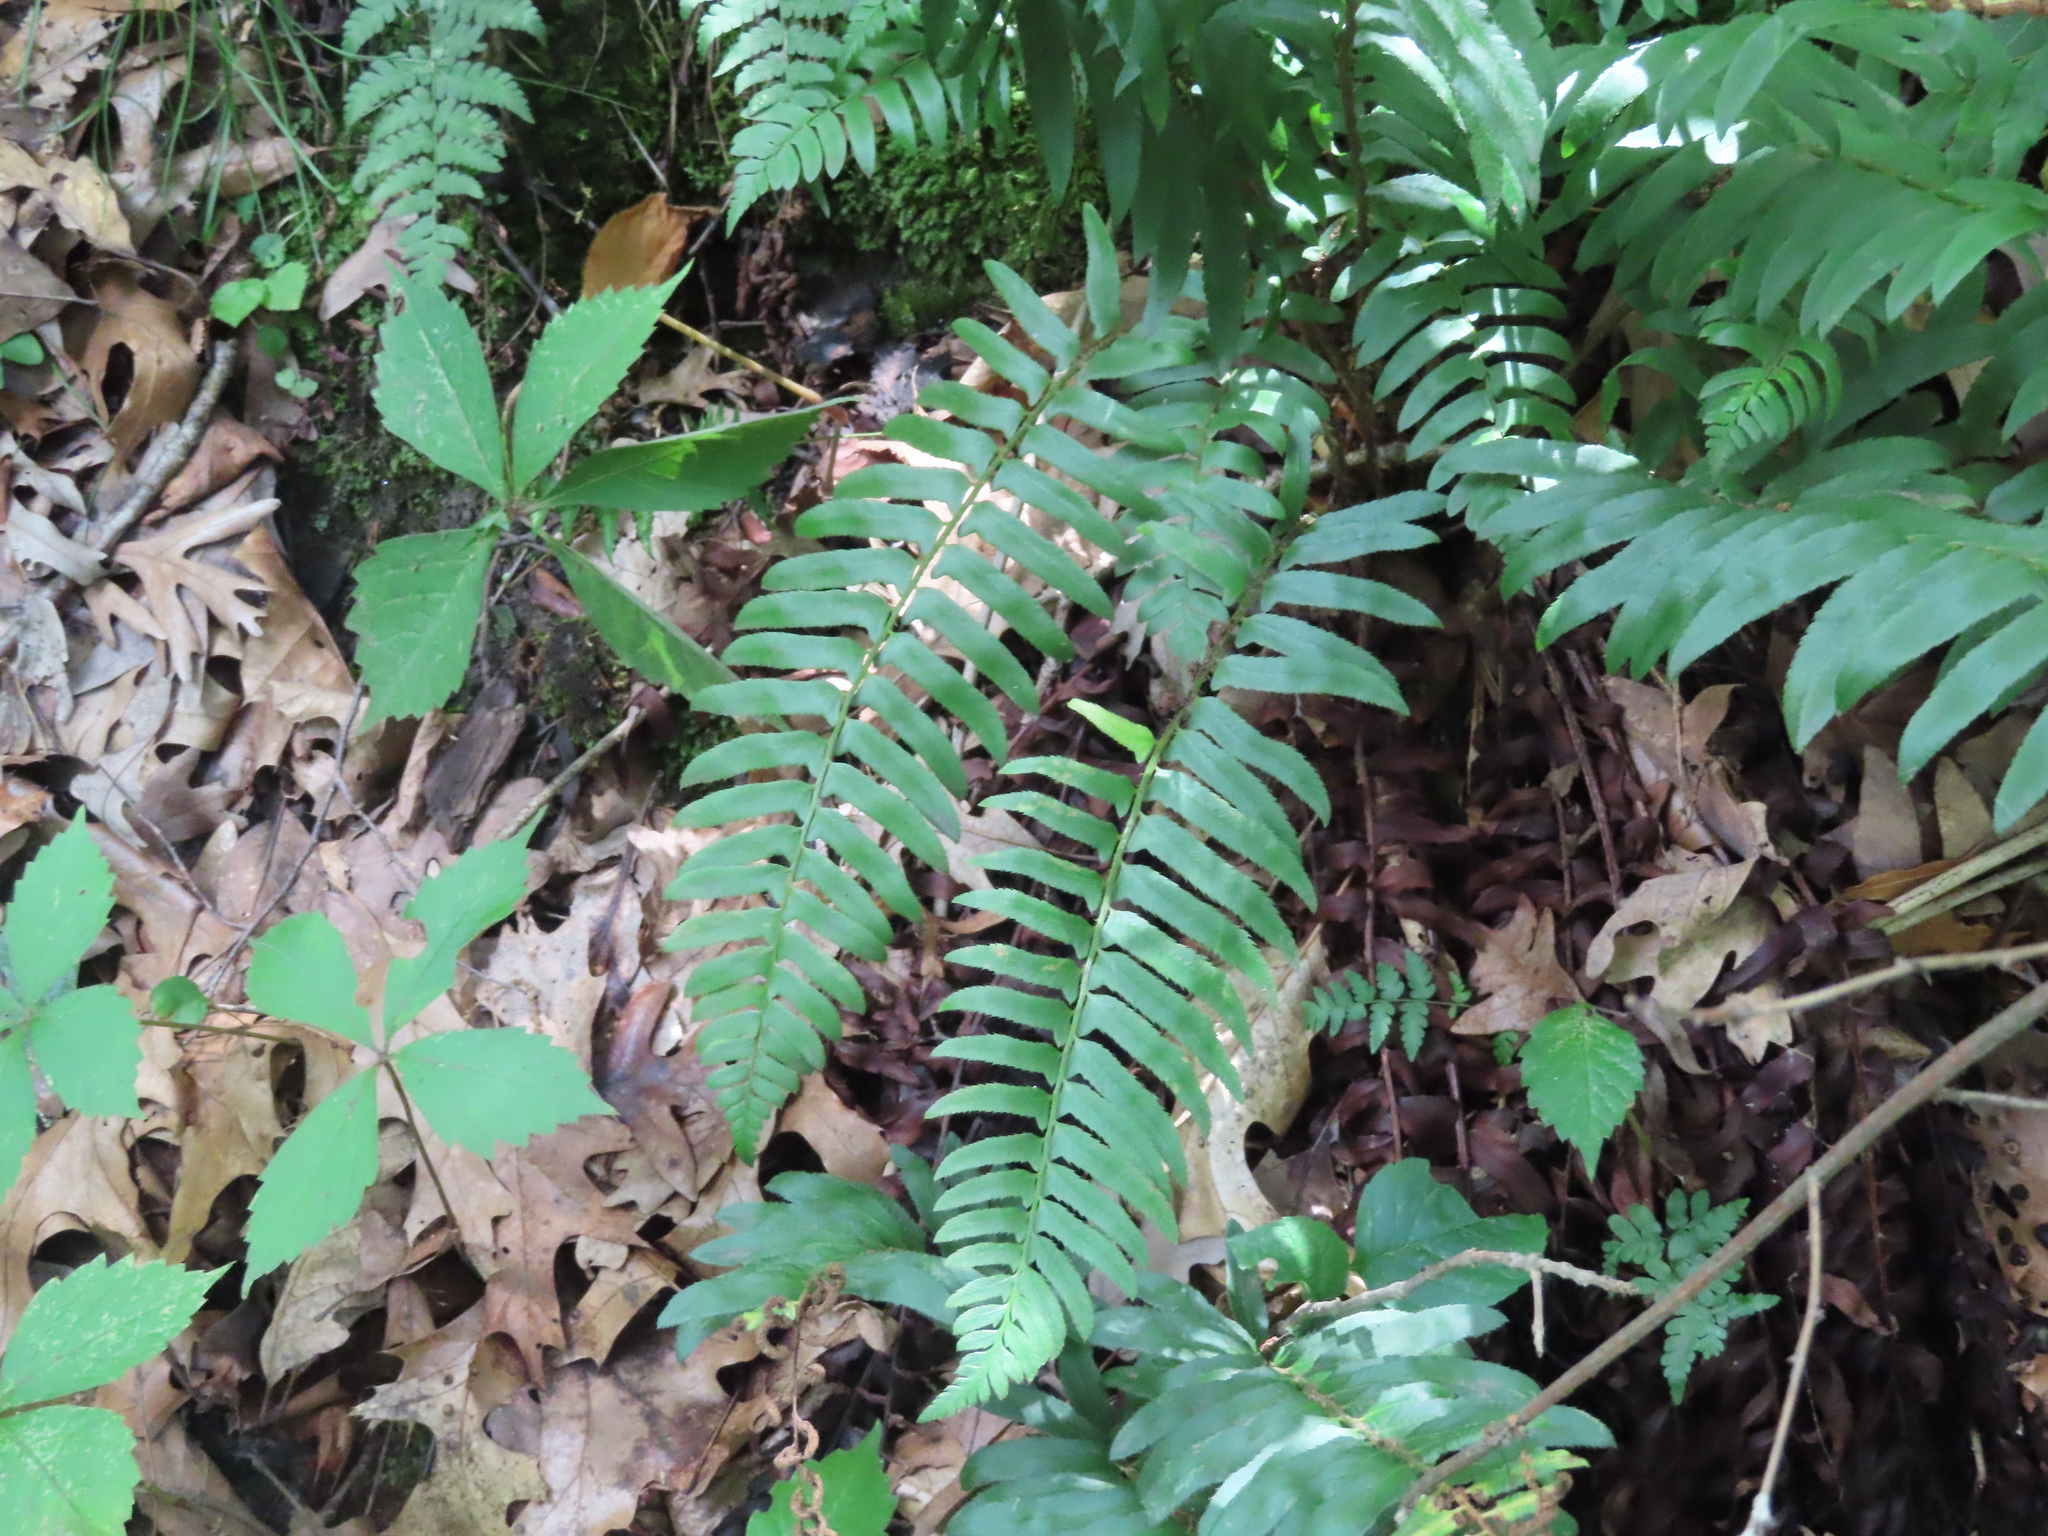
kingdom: Plantae
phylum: Tracheophyta
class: Polypodiopsida
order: Polypodiales
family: Dryopteridaceae
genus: Polystichum
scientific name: Polystichum acrostichoides
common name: Christmas fern
